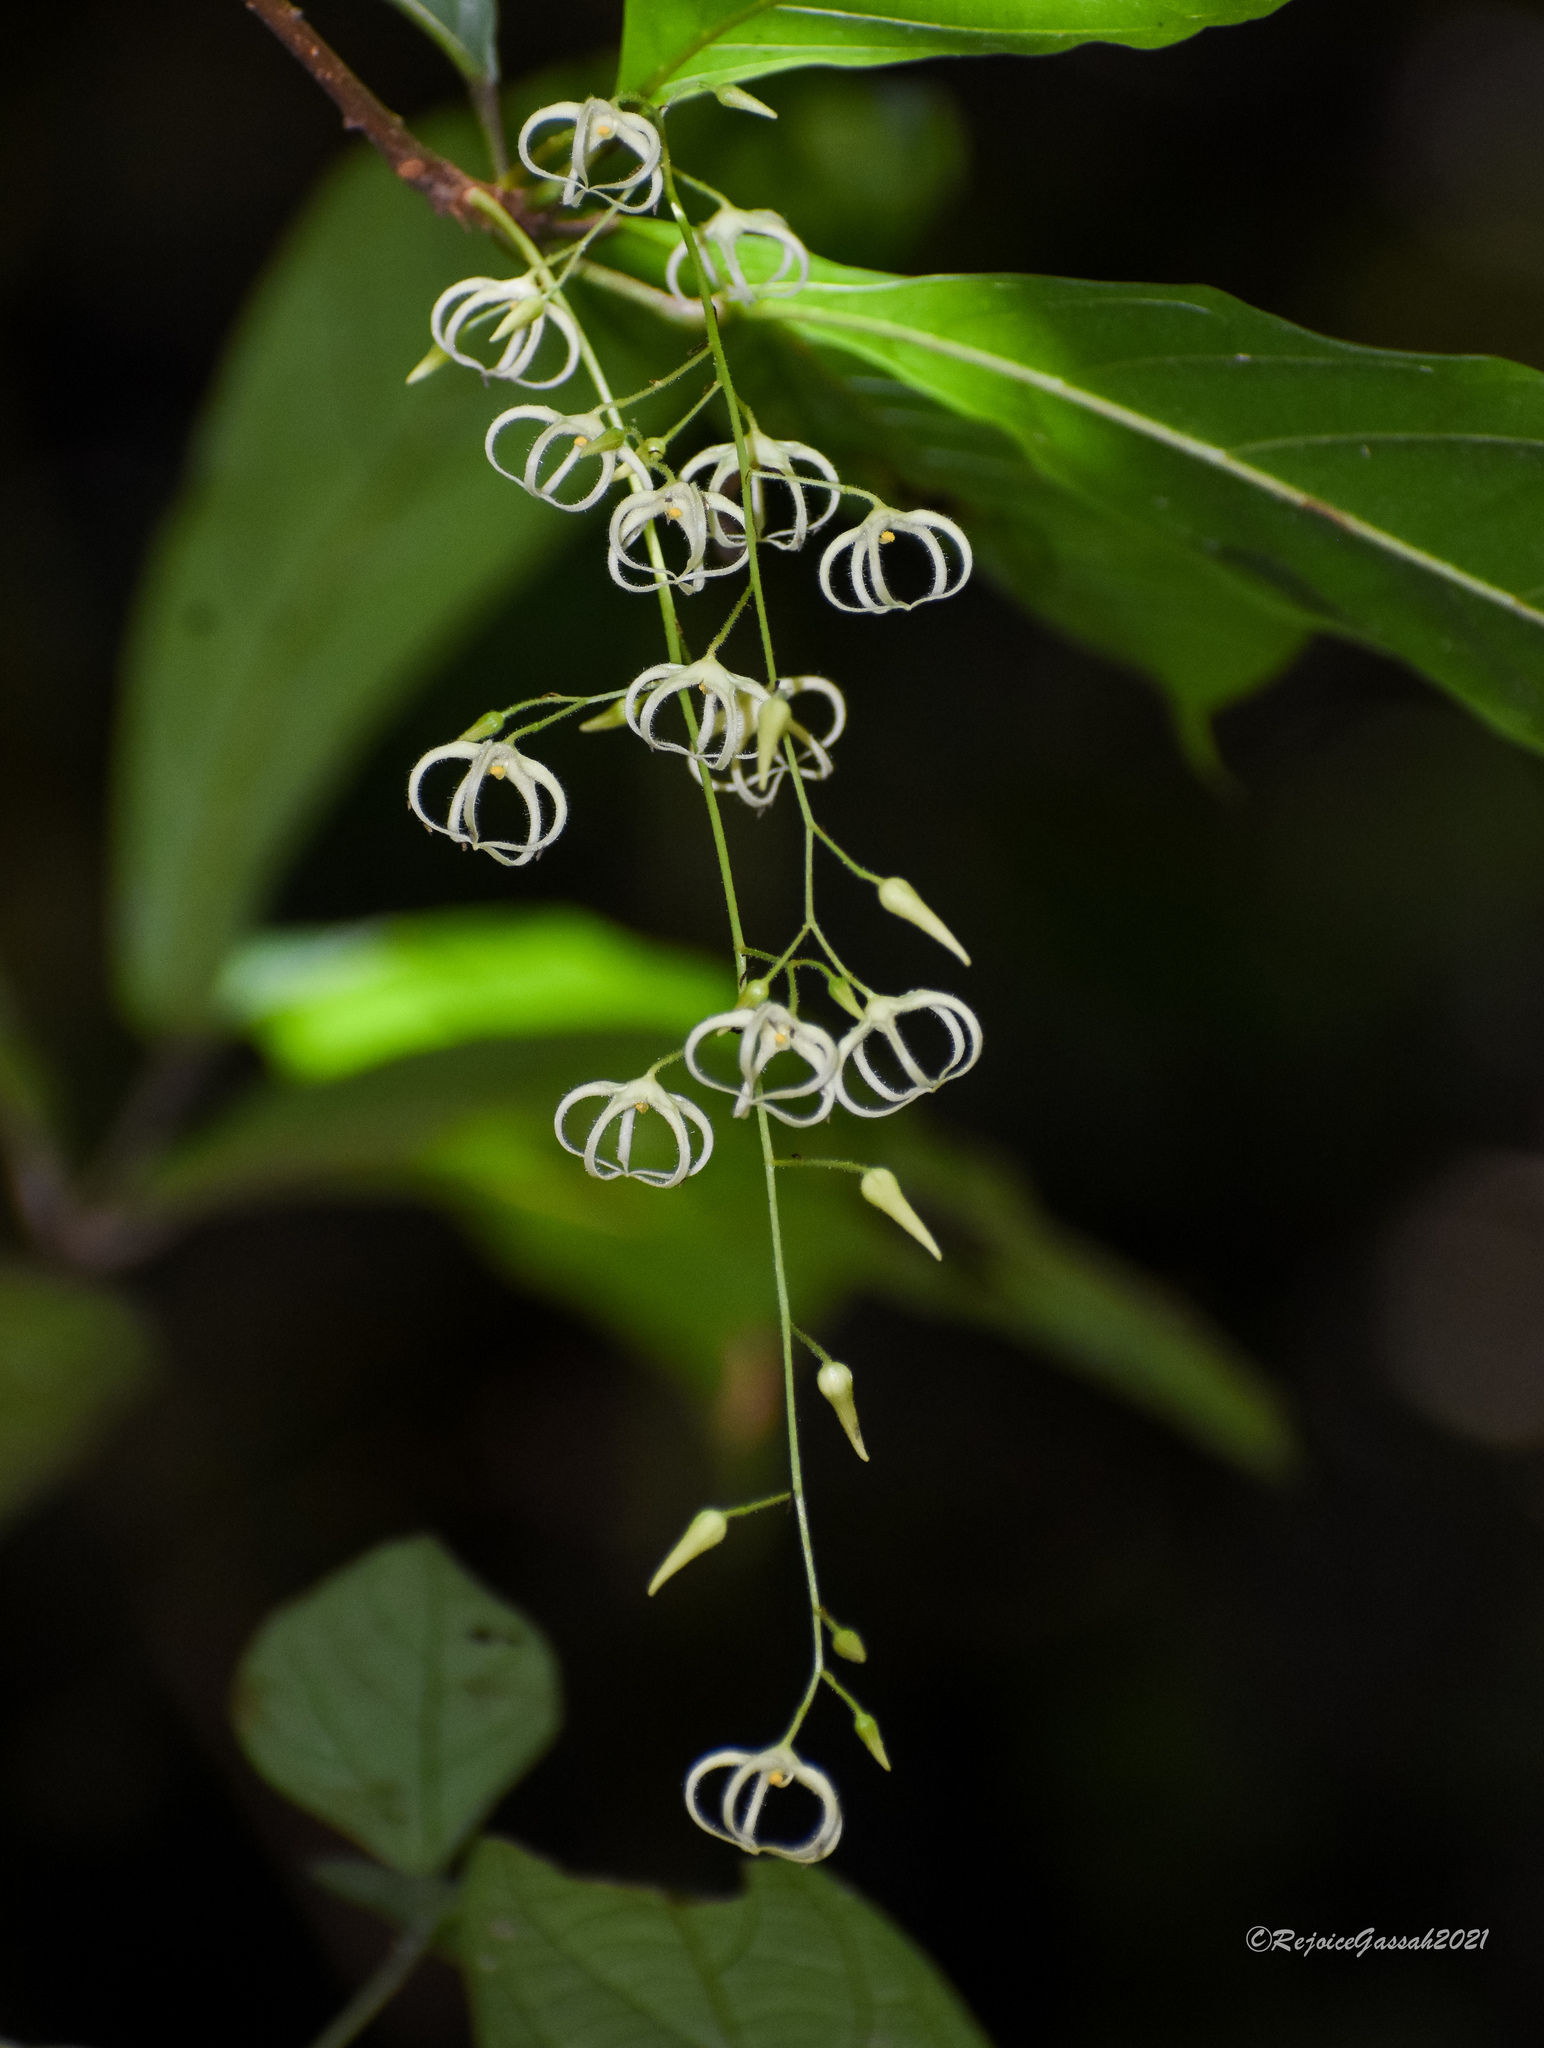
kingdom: Plantae
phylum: Tracheophyta
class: Magnoliopsida
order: Malvales
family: Malvaceae
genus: Sterculia
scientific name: Sterculia hamiltonii
